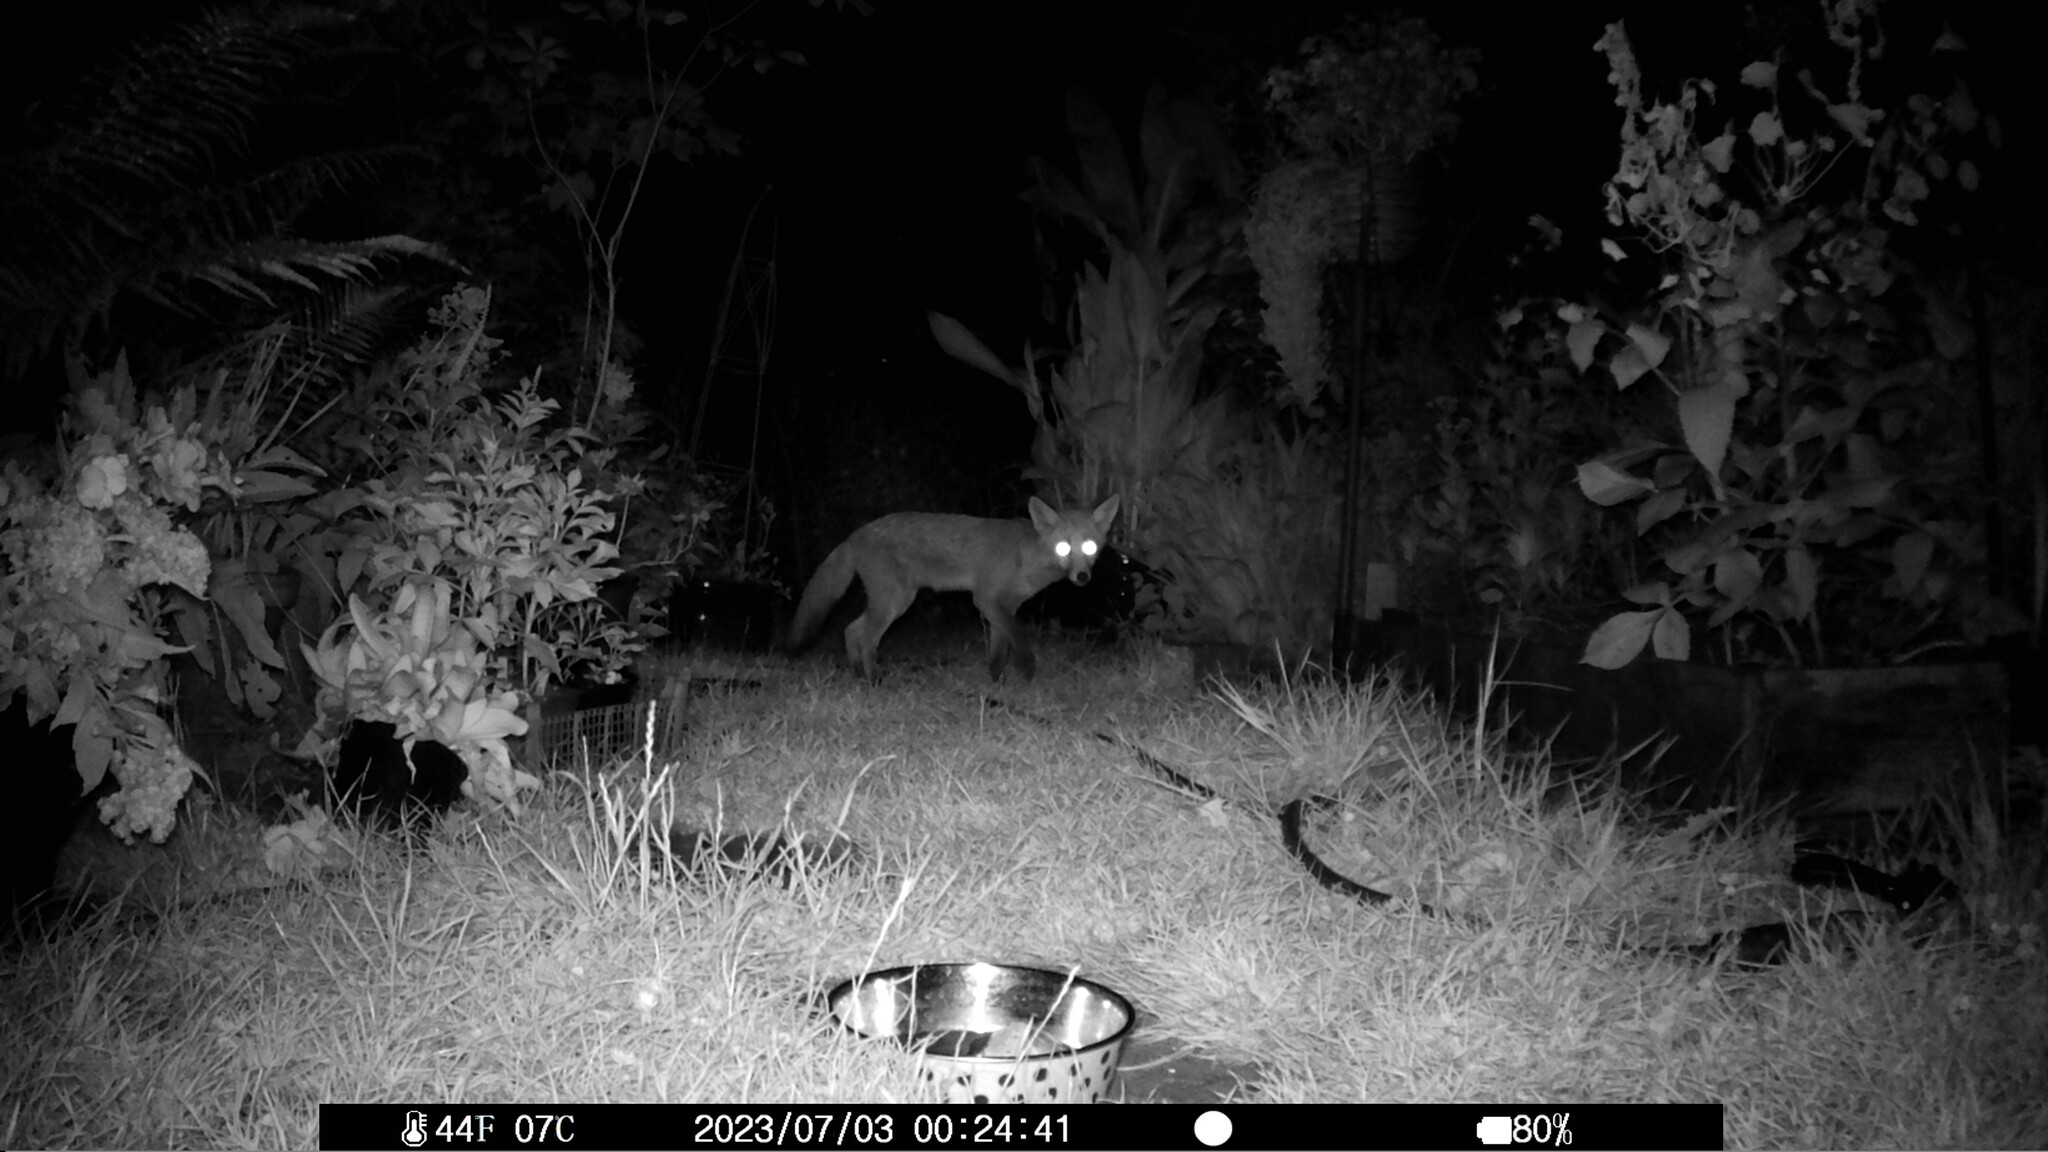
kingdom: Animalia
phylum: Chordata
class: Mammalia
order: Carnivora
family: Canidae
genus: Vulpes
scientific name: Vulpes vulpes
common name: Red fox
